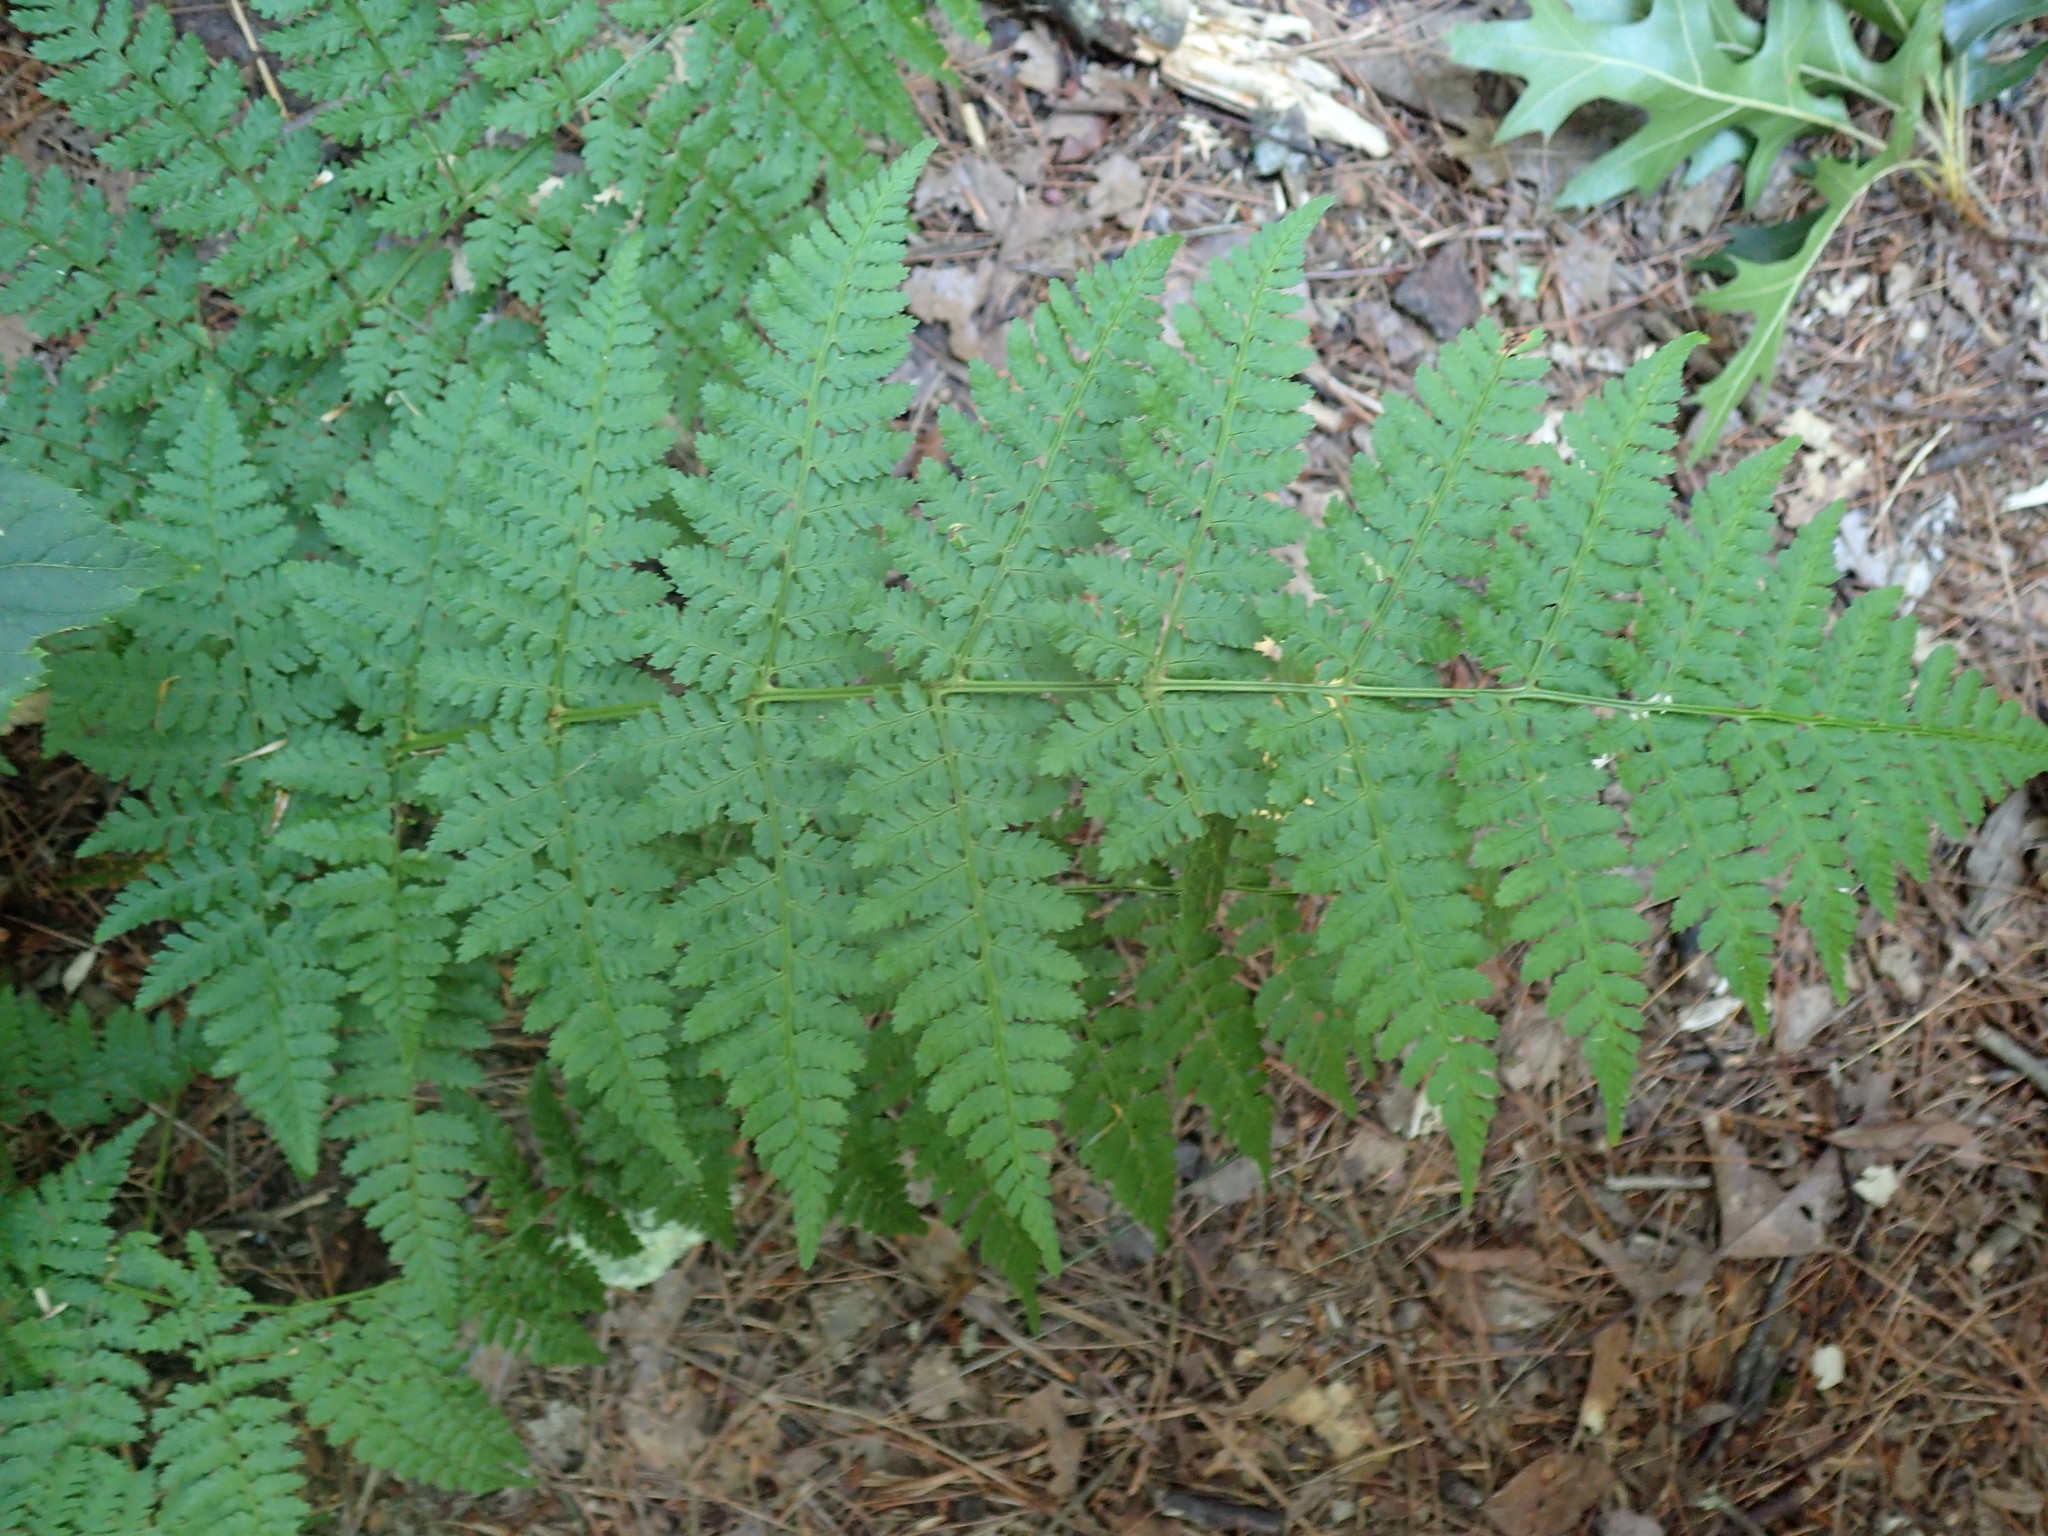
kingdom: Plantae
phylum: Tracheophyta
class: Polypodiopsida
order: Polypodiales
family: Dryopteridaceae
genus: Dryopteris
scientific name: Dryopteris intermedia
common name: Evergreen wood fern
